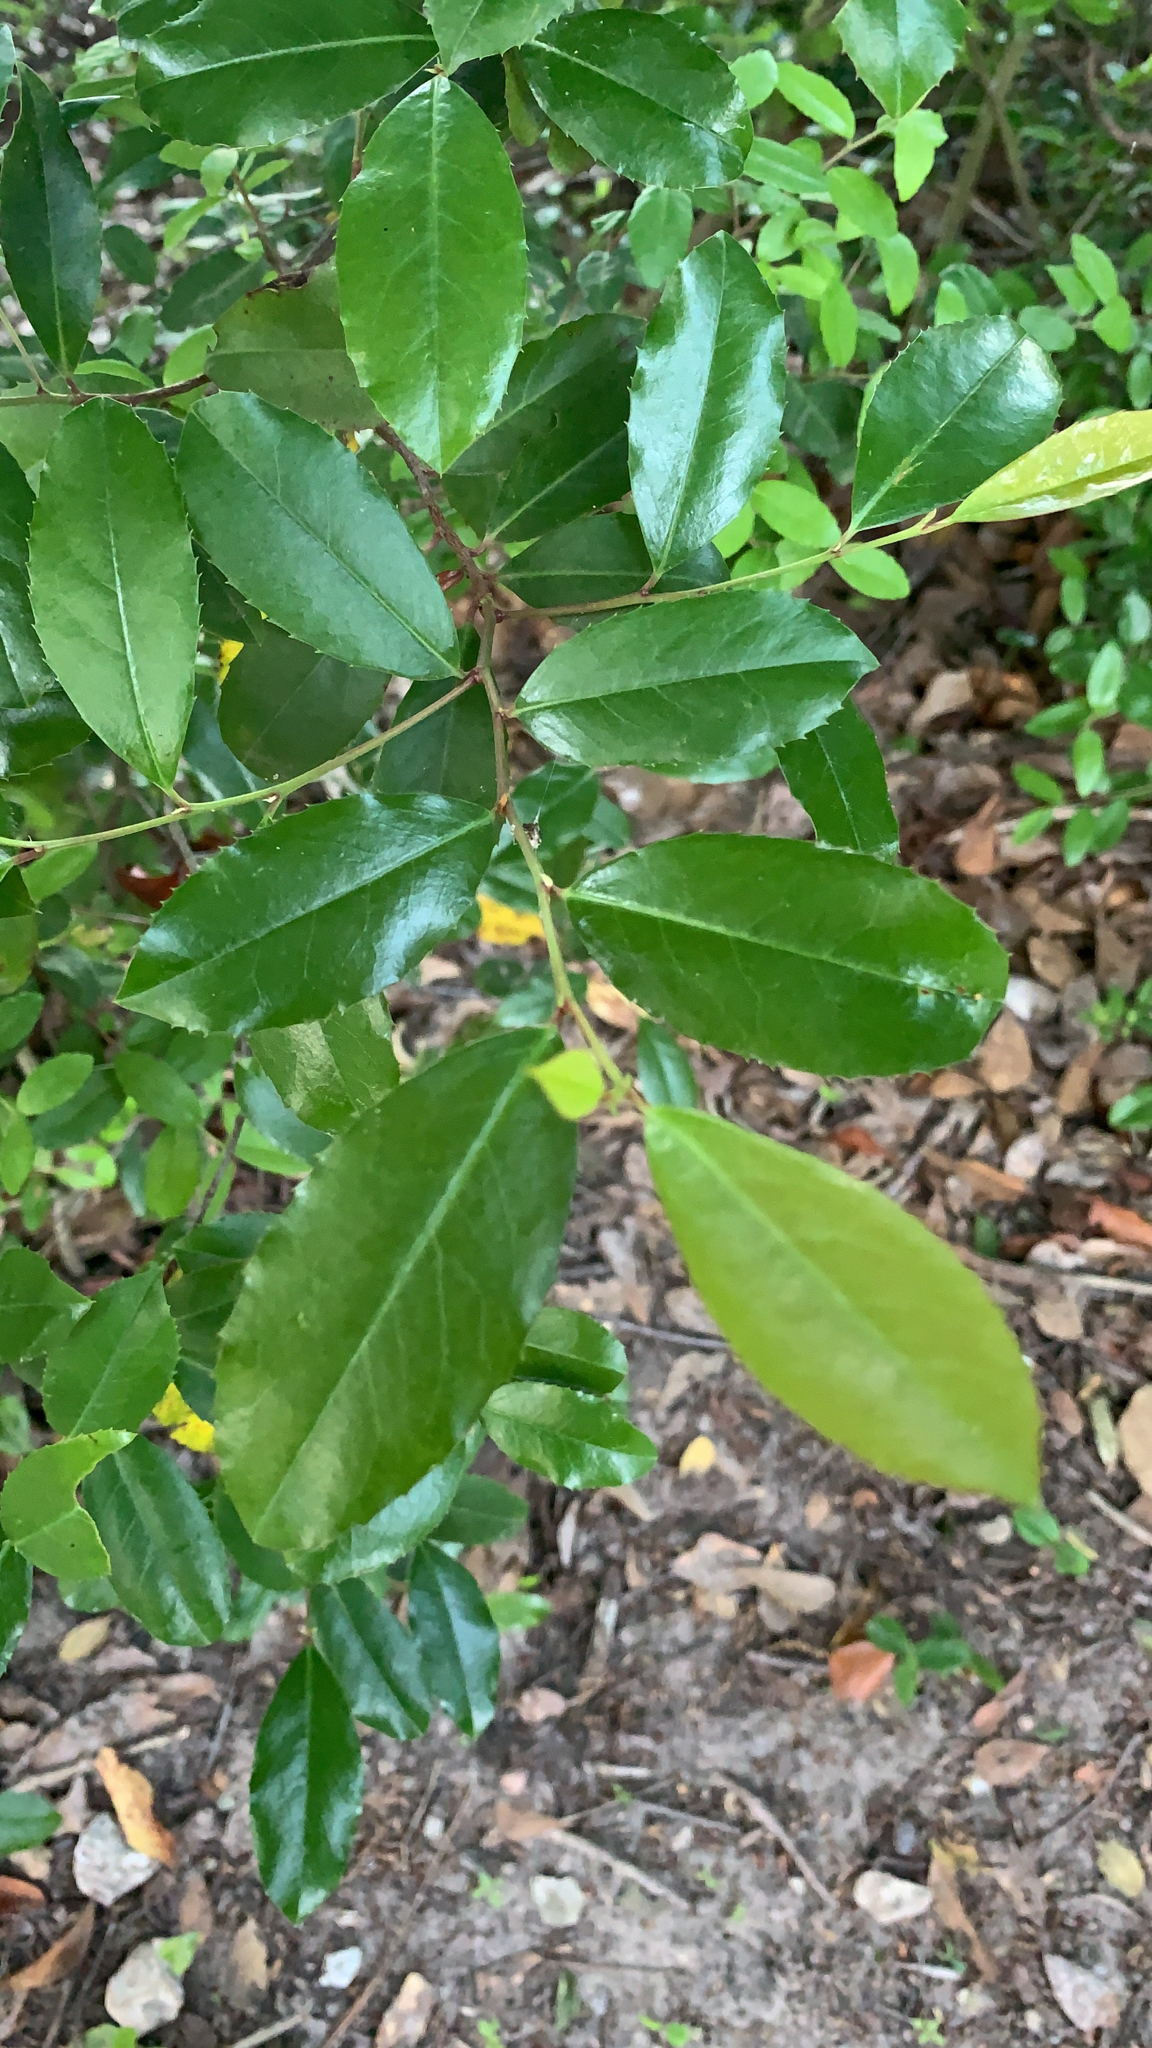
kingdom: Plantae
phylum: Tracheophyta
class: Magnoliopsida
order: Rosales
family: Rosaceae
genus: Prunus
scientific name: Prunus caroliniana
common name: Carolina laurel cherry
